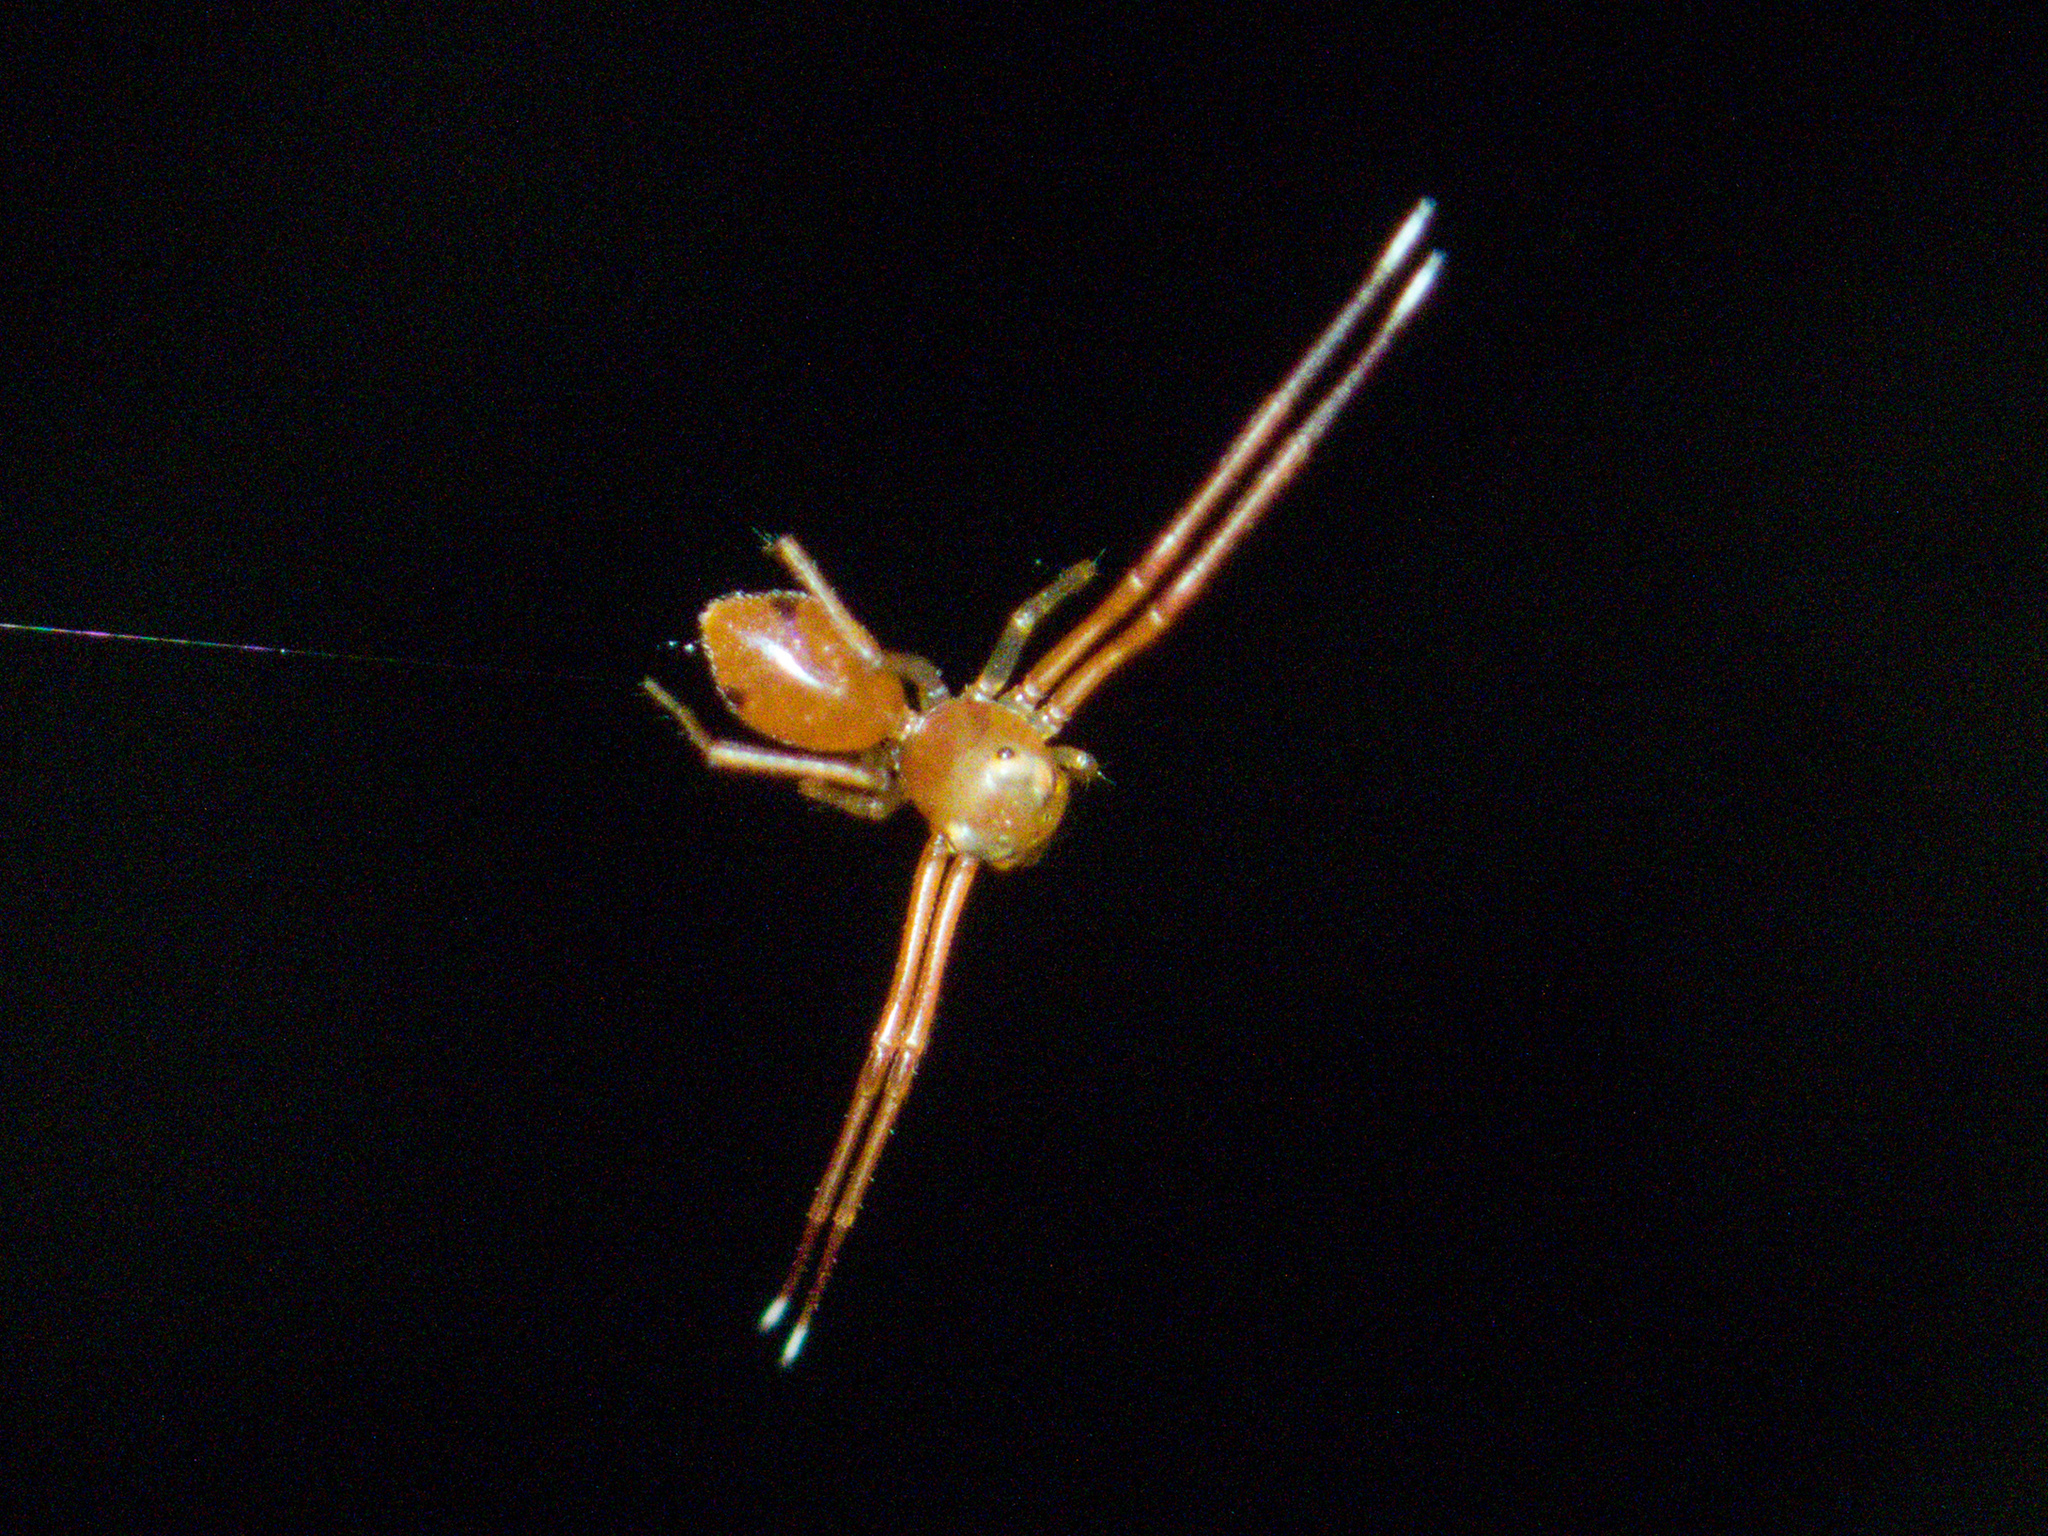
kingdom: Animalia
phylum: Arthropoda
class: Arachnida
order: Araneae
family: Thomisidae
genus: Amyciaea
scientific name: Amyciaea forticeps
